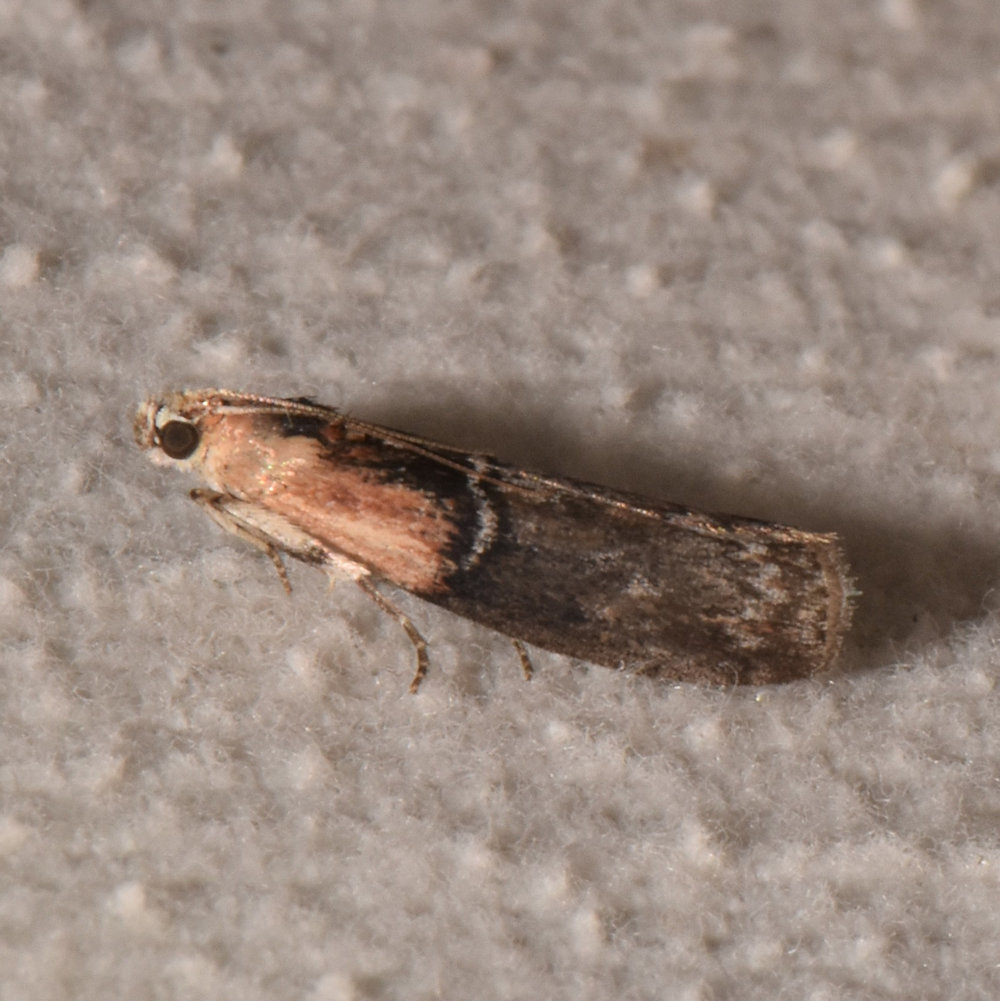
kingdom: Animalia
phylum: Arthropoda
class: Insecta
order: Lepidoptera
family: Pyralidae
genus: Sciota
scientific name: Sciota basilaris
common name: Yellow-shouldered leafroller
